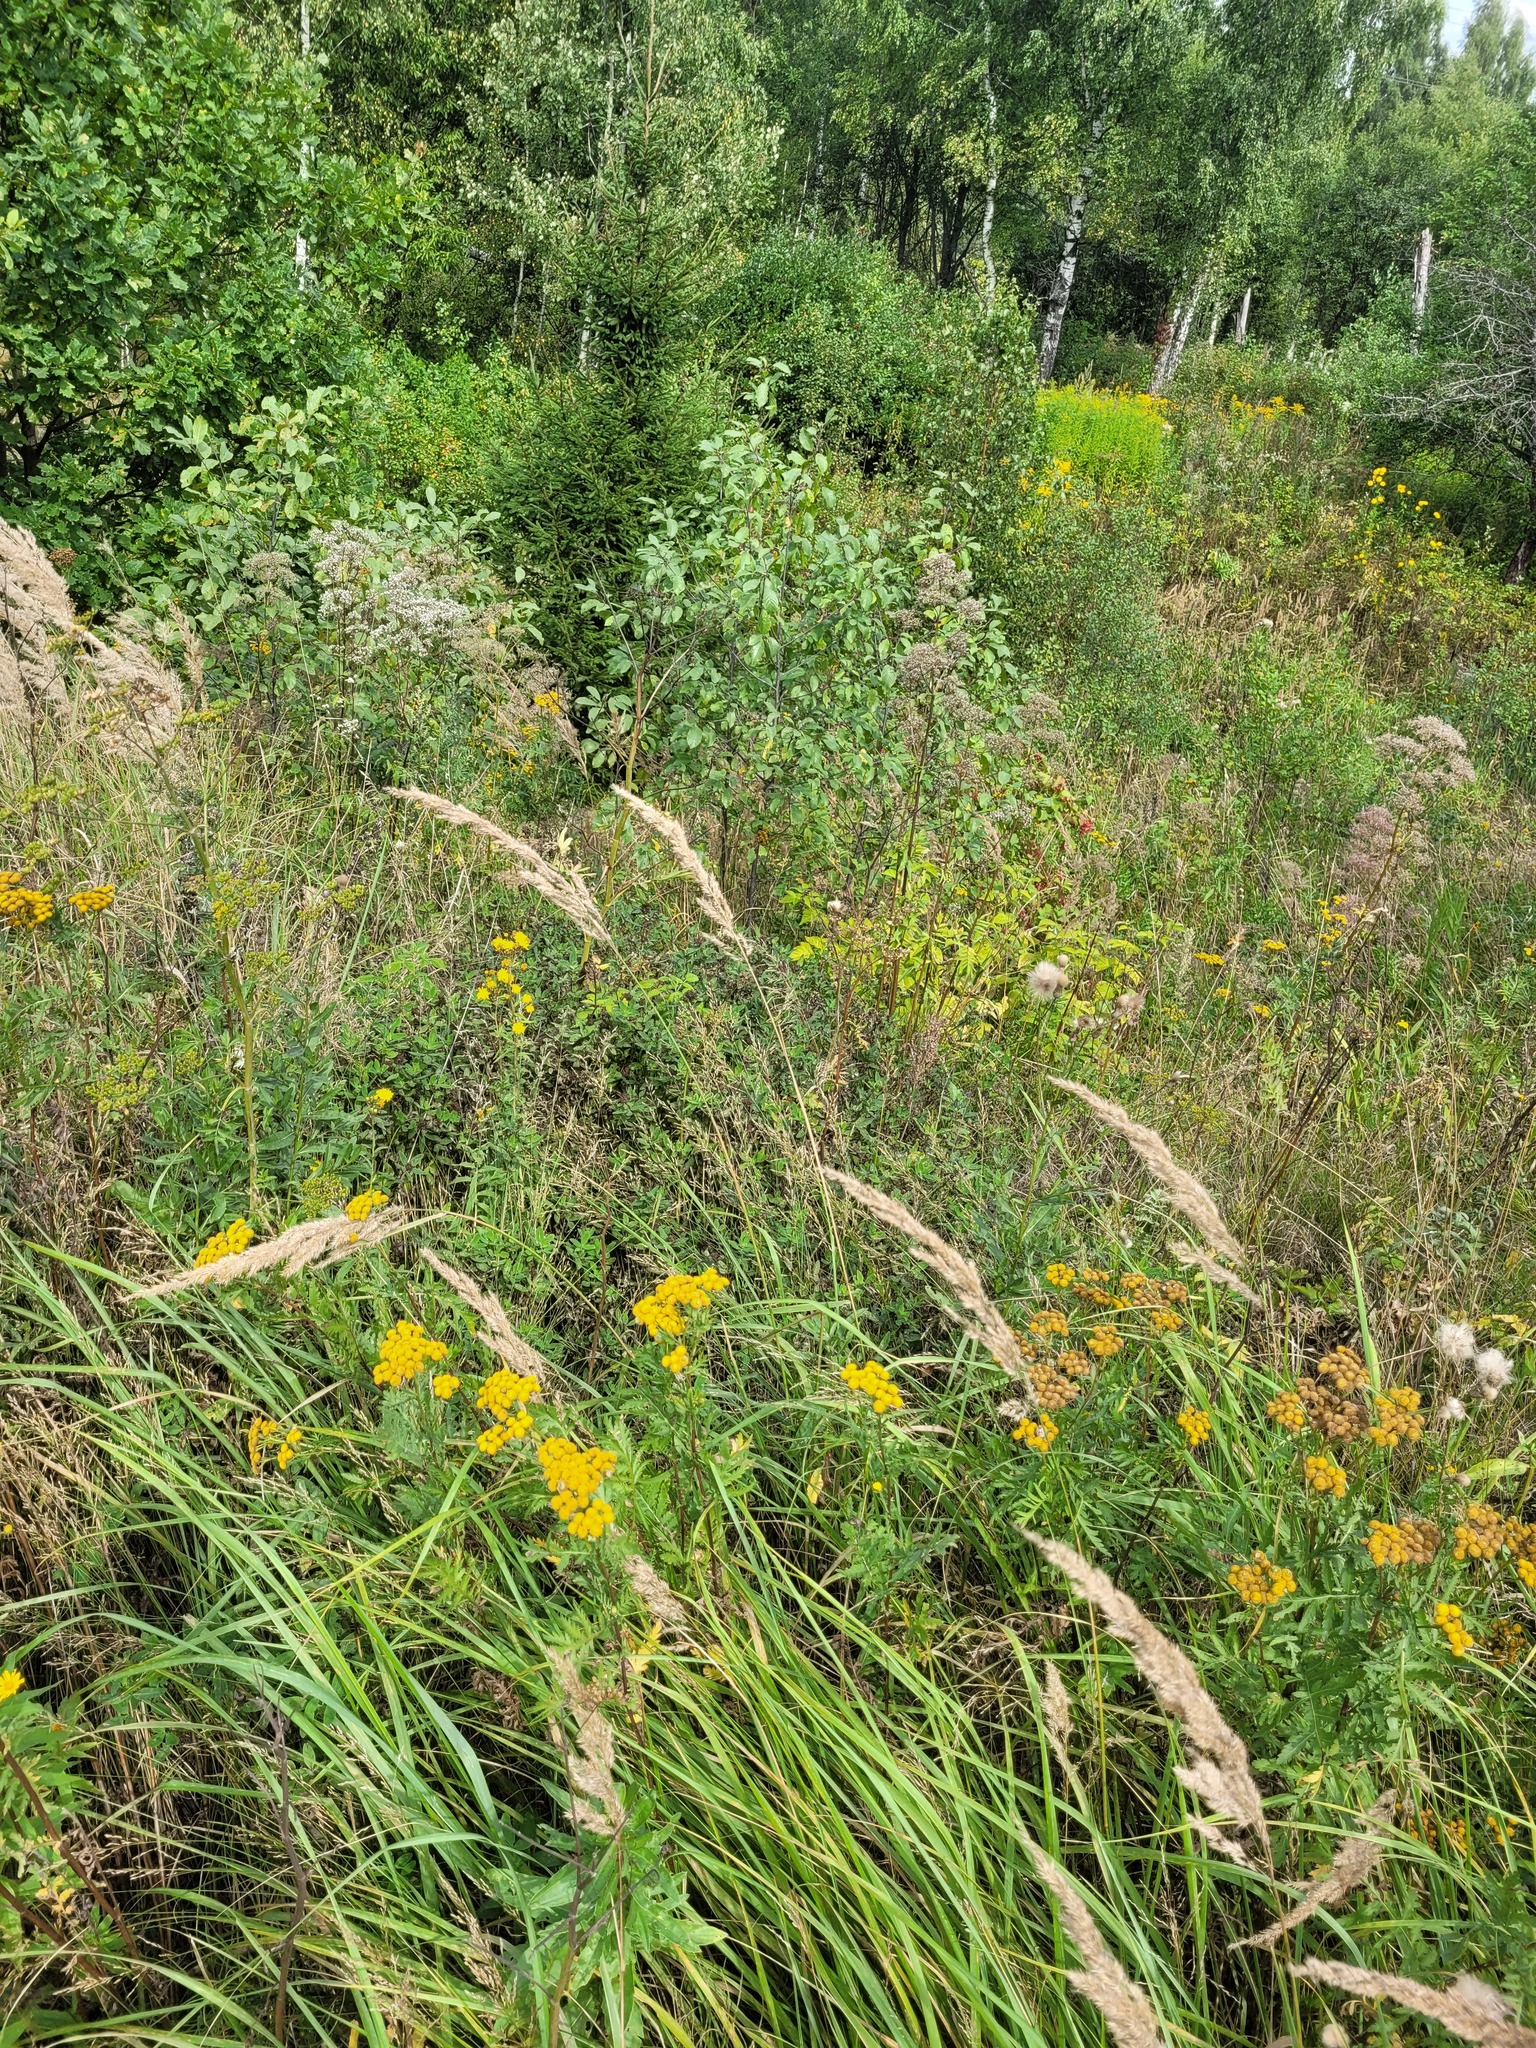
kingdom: Plantae
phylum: Tracheophyta
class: Magnoliopsida
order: Fabales
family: Fabaceae
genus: Trifolium
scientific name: Trifolium medium
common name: Zigzag clover
